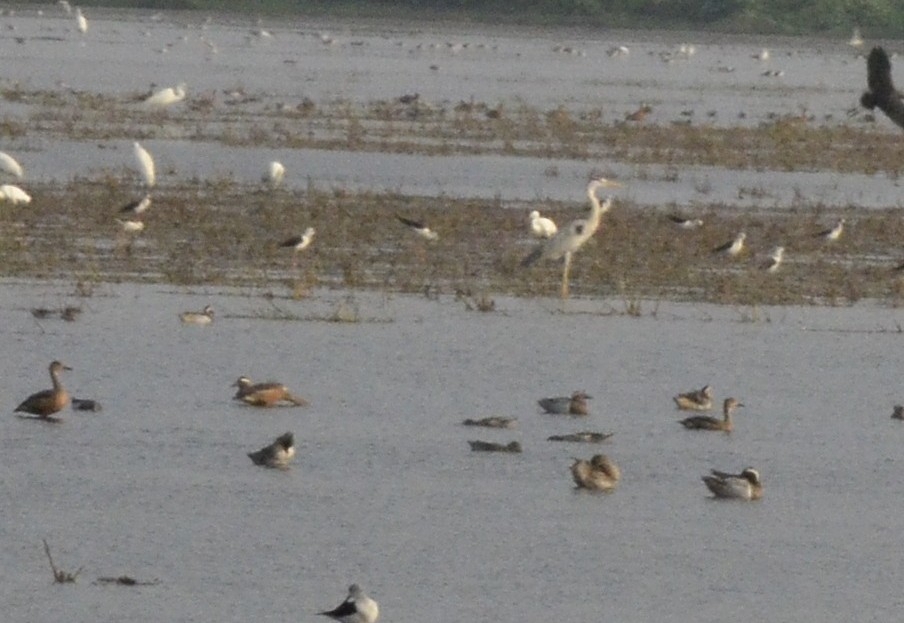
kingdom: Animalia
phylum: Chordata
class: Aves
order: Anseriformes
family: Anatidae
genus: Spatula
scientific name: Spatula querquedula
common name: Garganey
